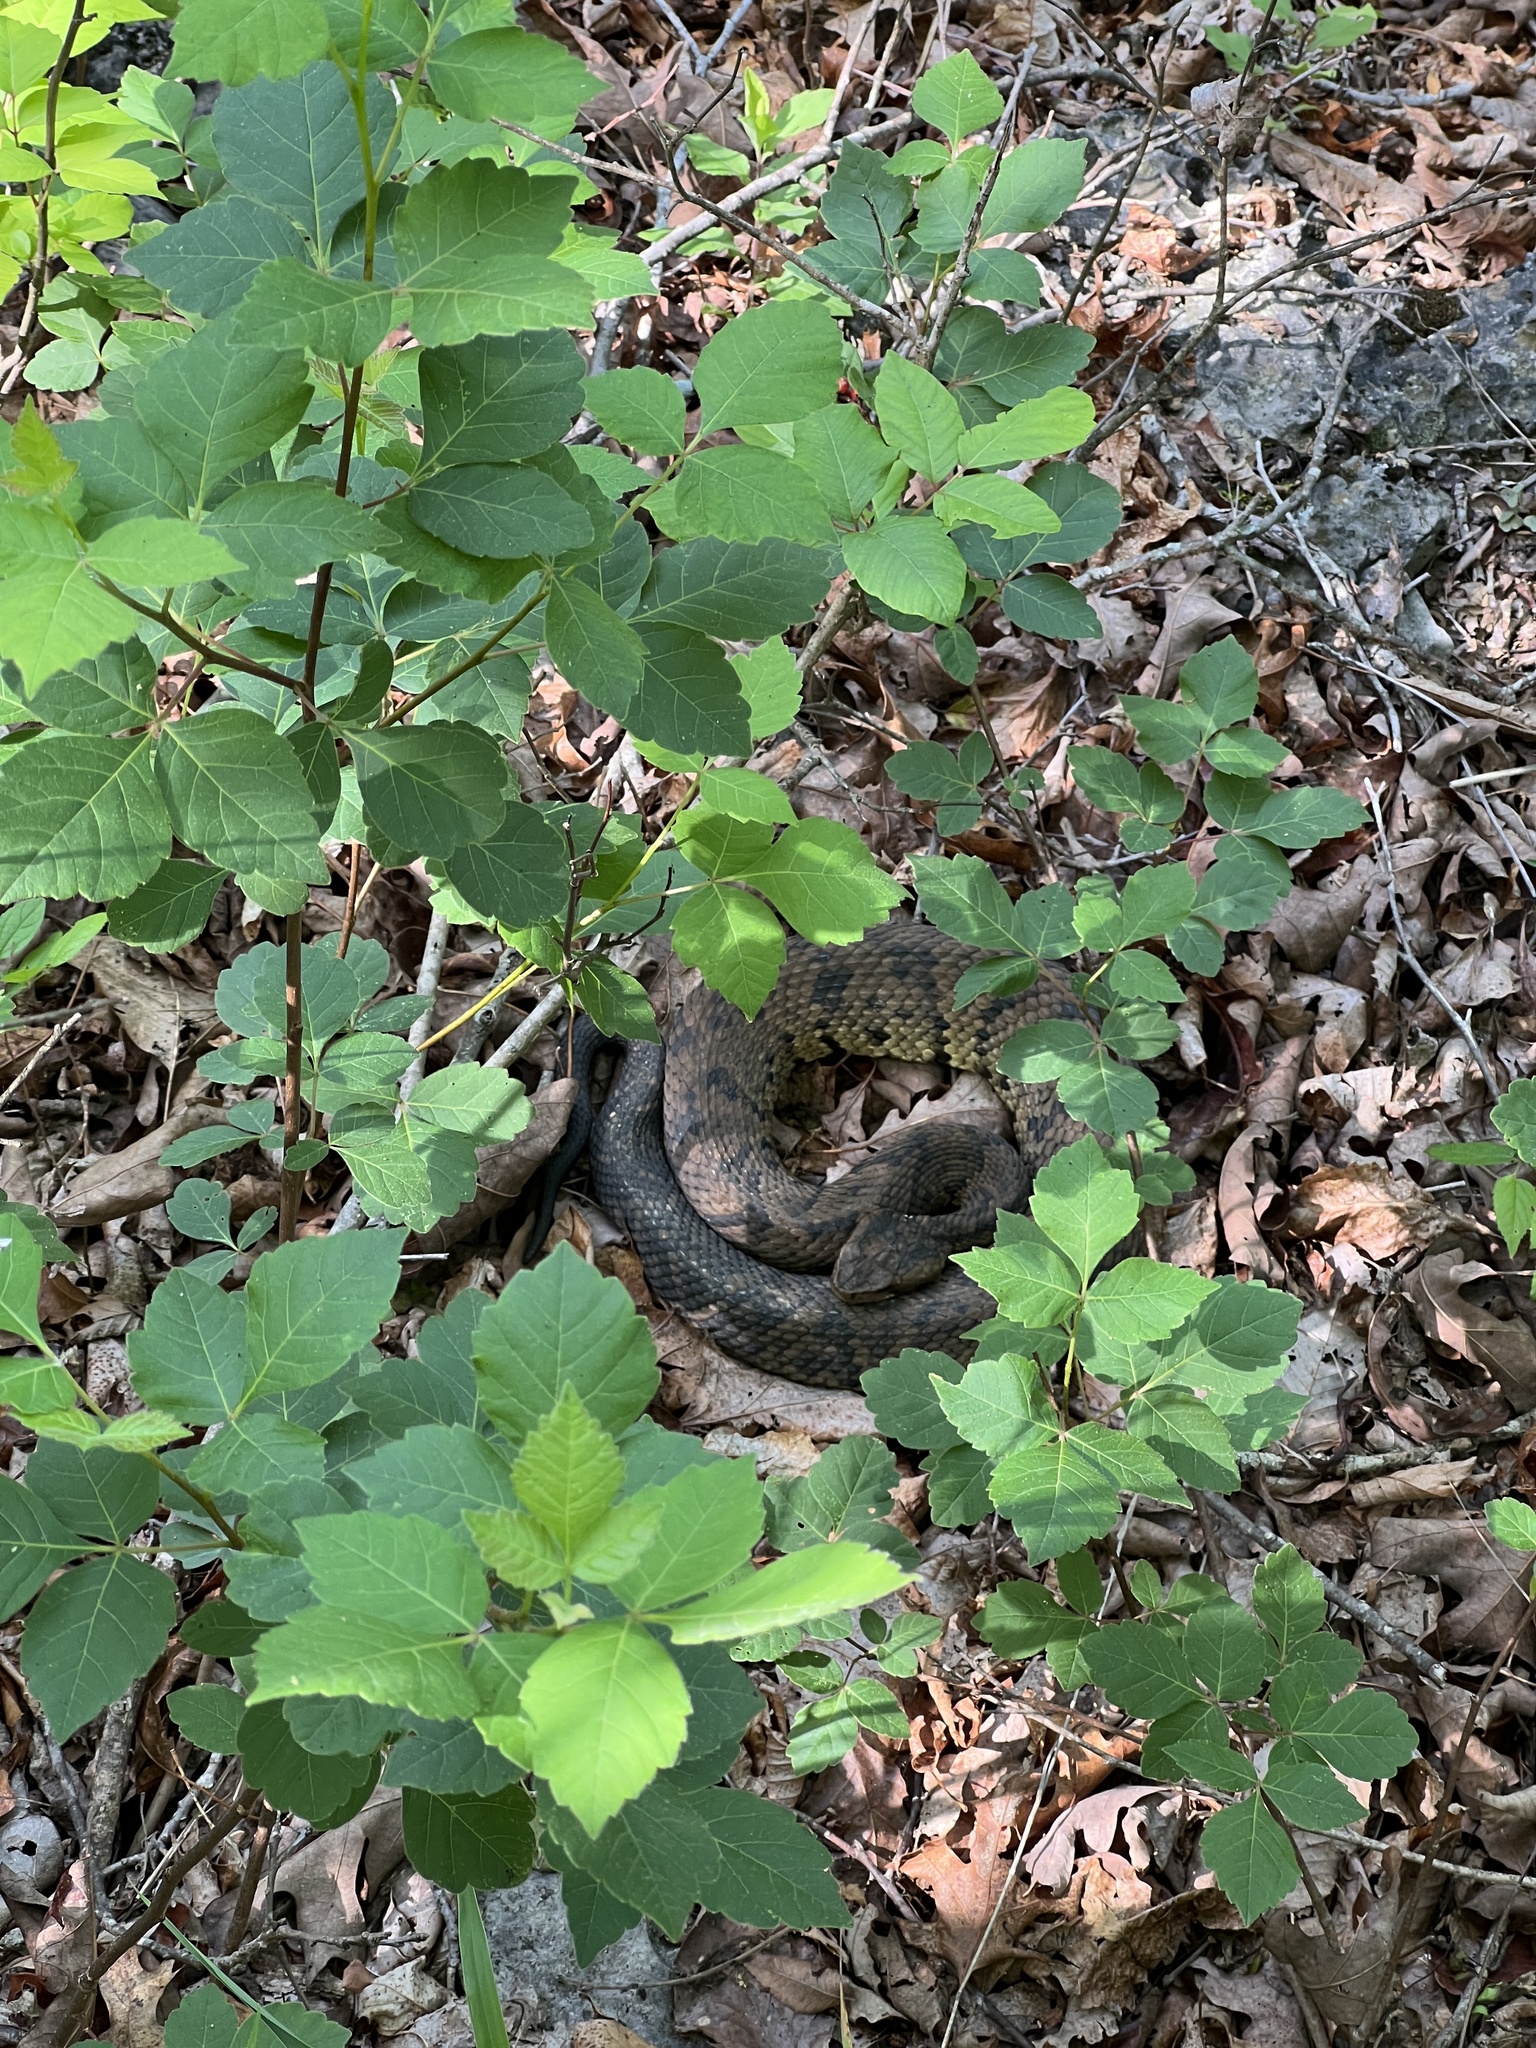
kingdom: Animalia
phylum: Chordata
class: Squamata
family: Viperidae
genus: Agkistrodon
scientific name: Agkistrodon piscivorus
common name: Cottonmouth
